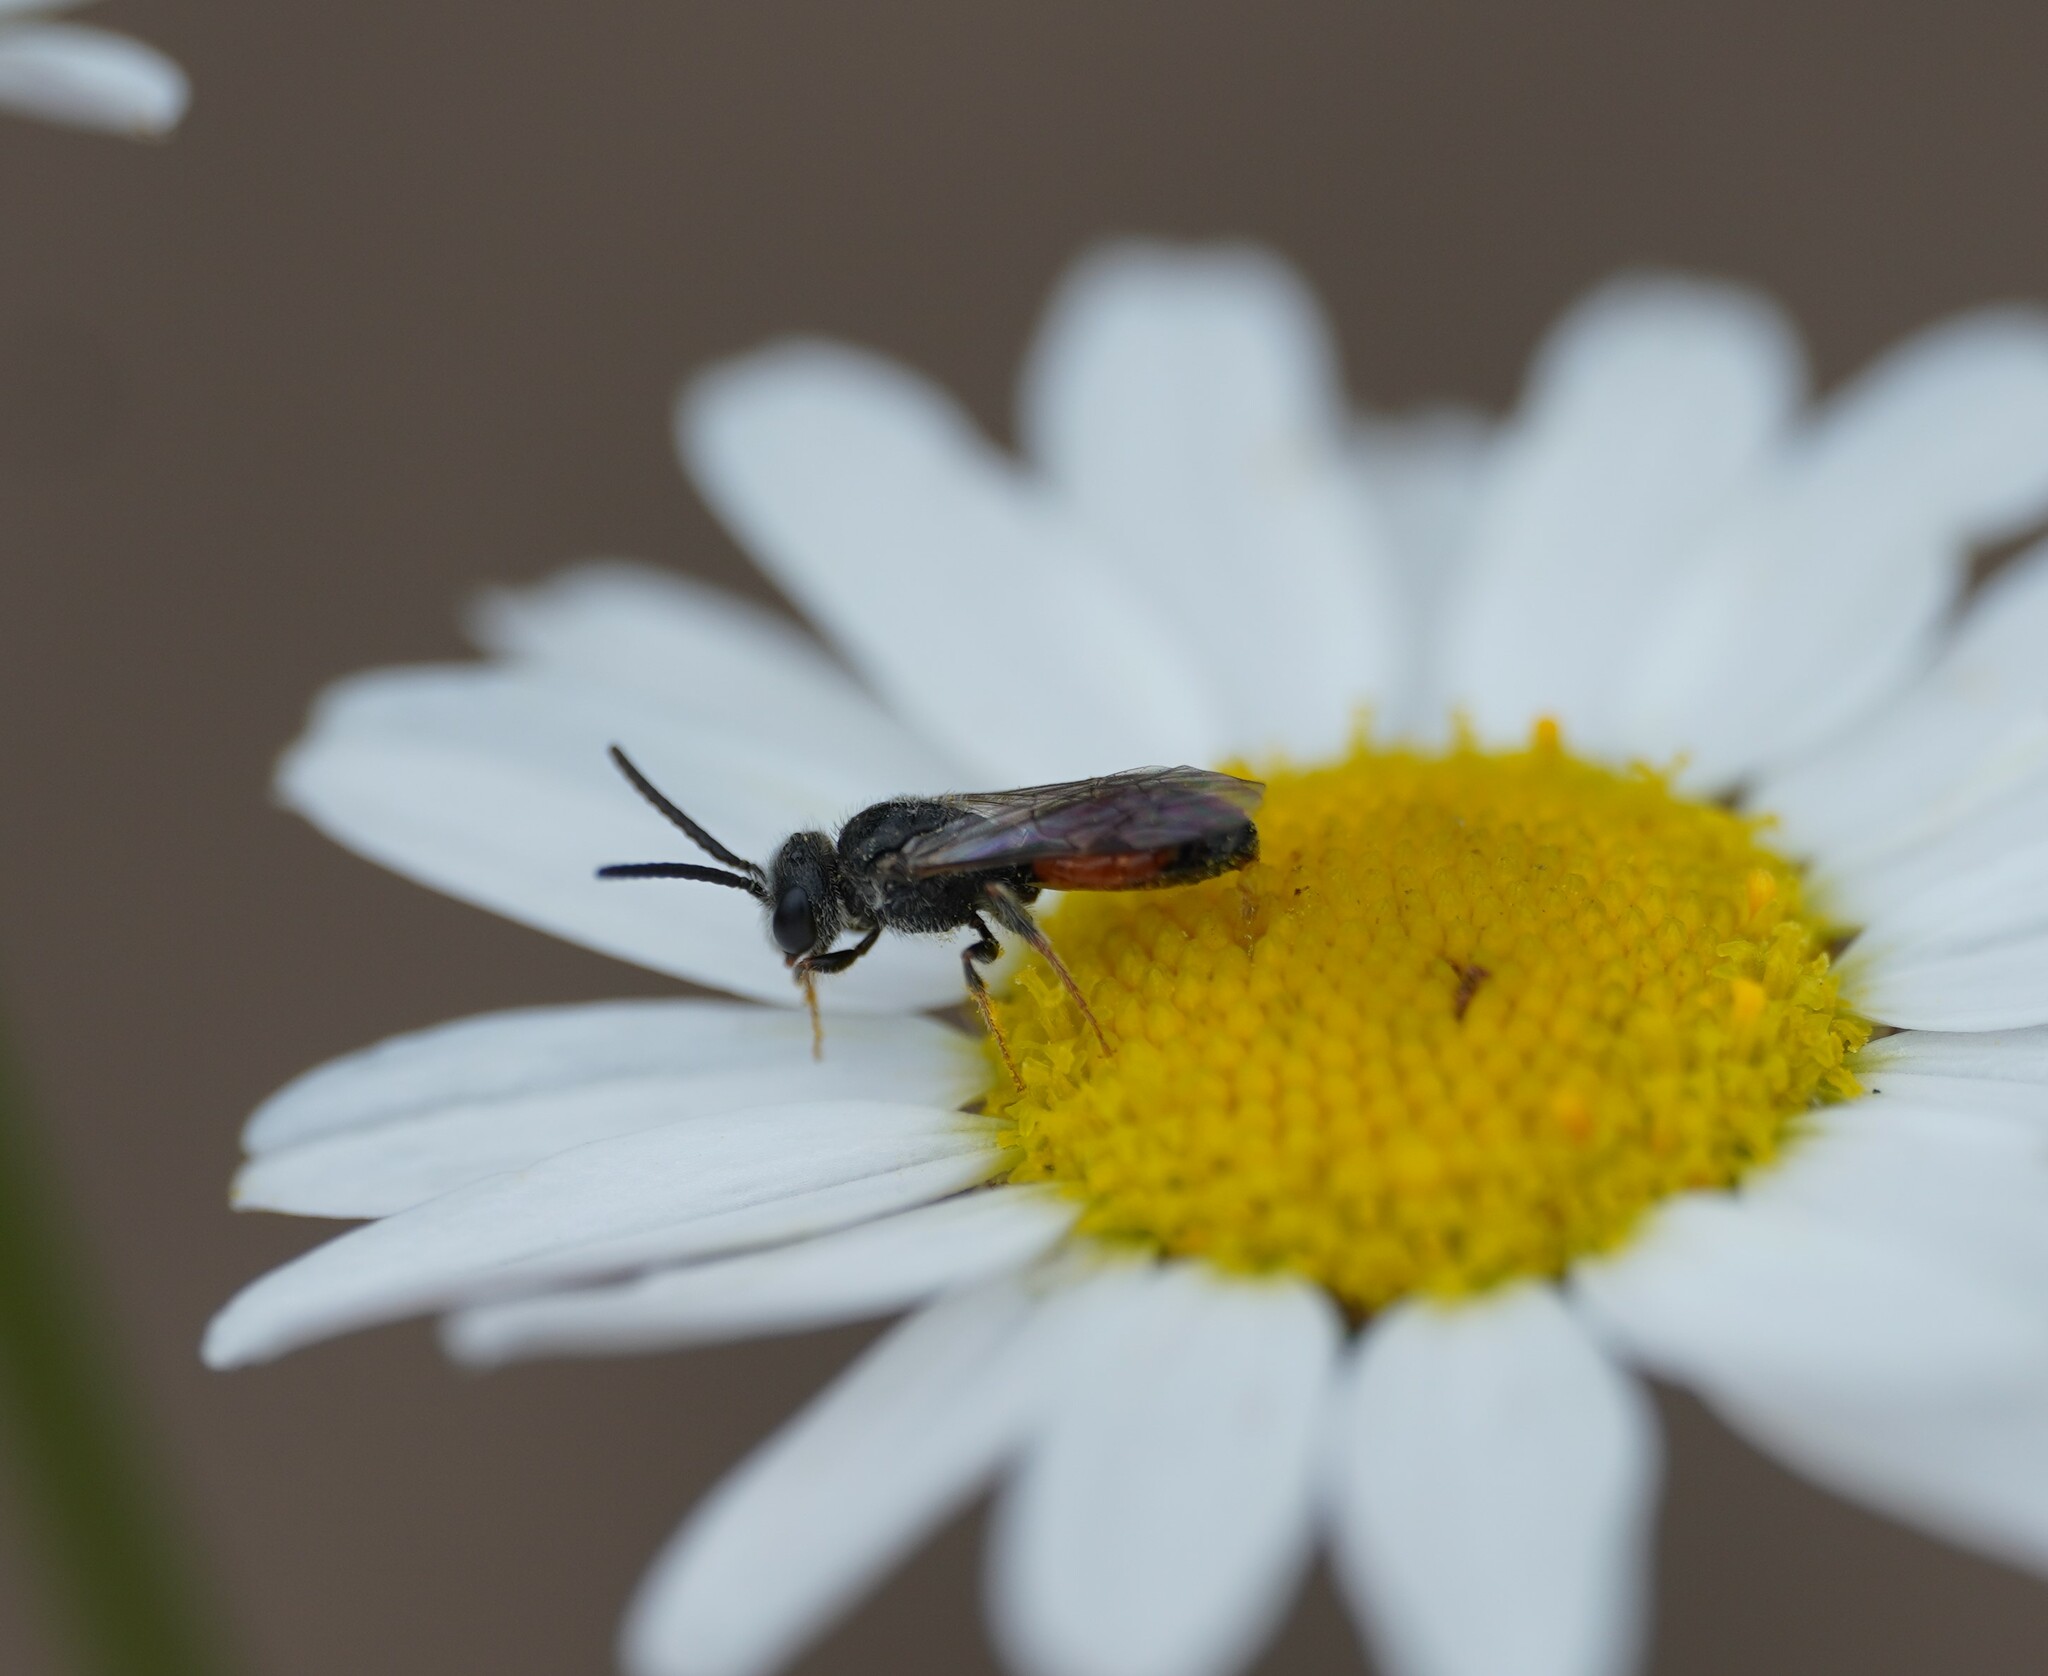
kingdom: Animalia
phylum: Arthropoda
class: Insecta
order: Hymenoptera
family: Halictidae
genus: Sphecodes
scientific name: Sphecodes
